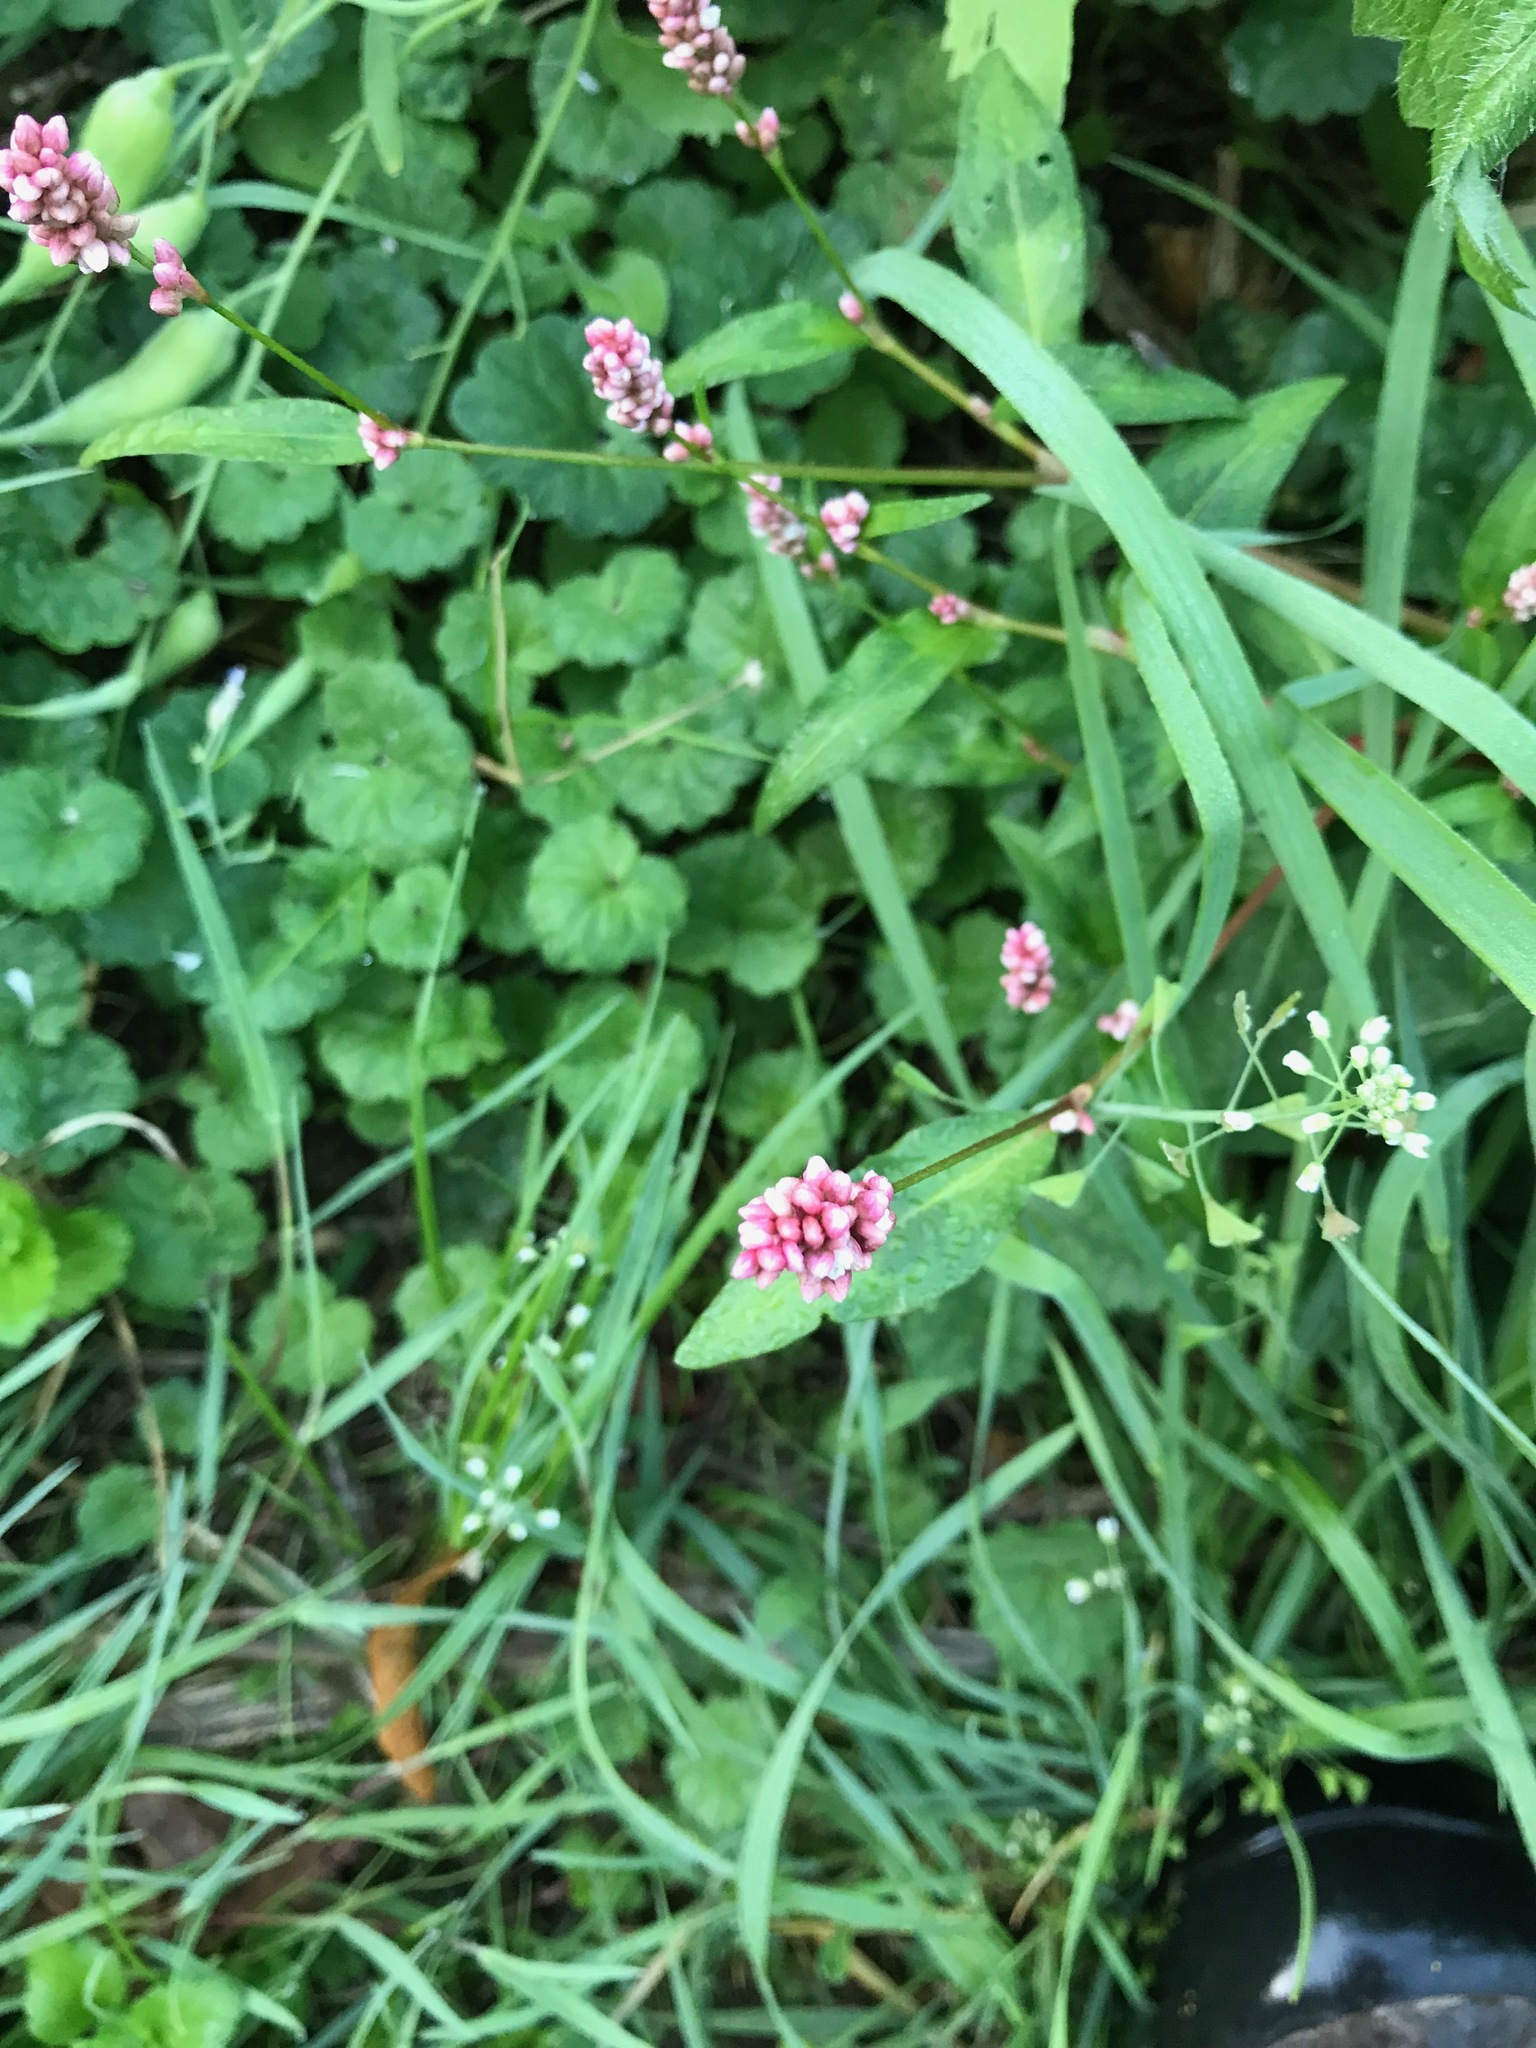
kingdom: Plantae
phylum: Tracheophyta
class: Magnoliopsida
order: Caryophyllales
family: Polygonaceae
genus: Persicaria
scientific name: Persicaria maculosa
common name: Redshank
